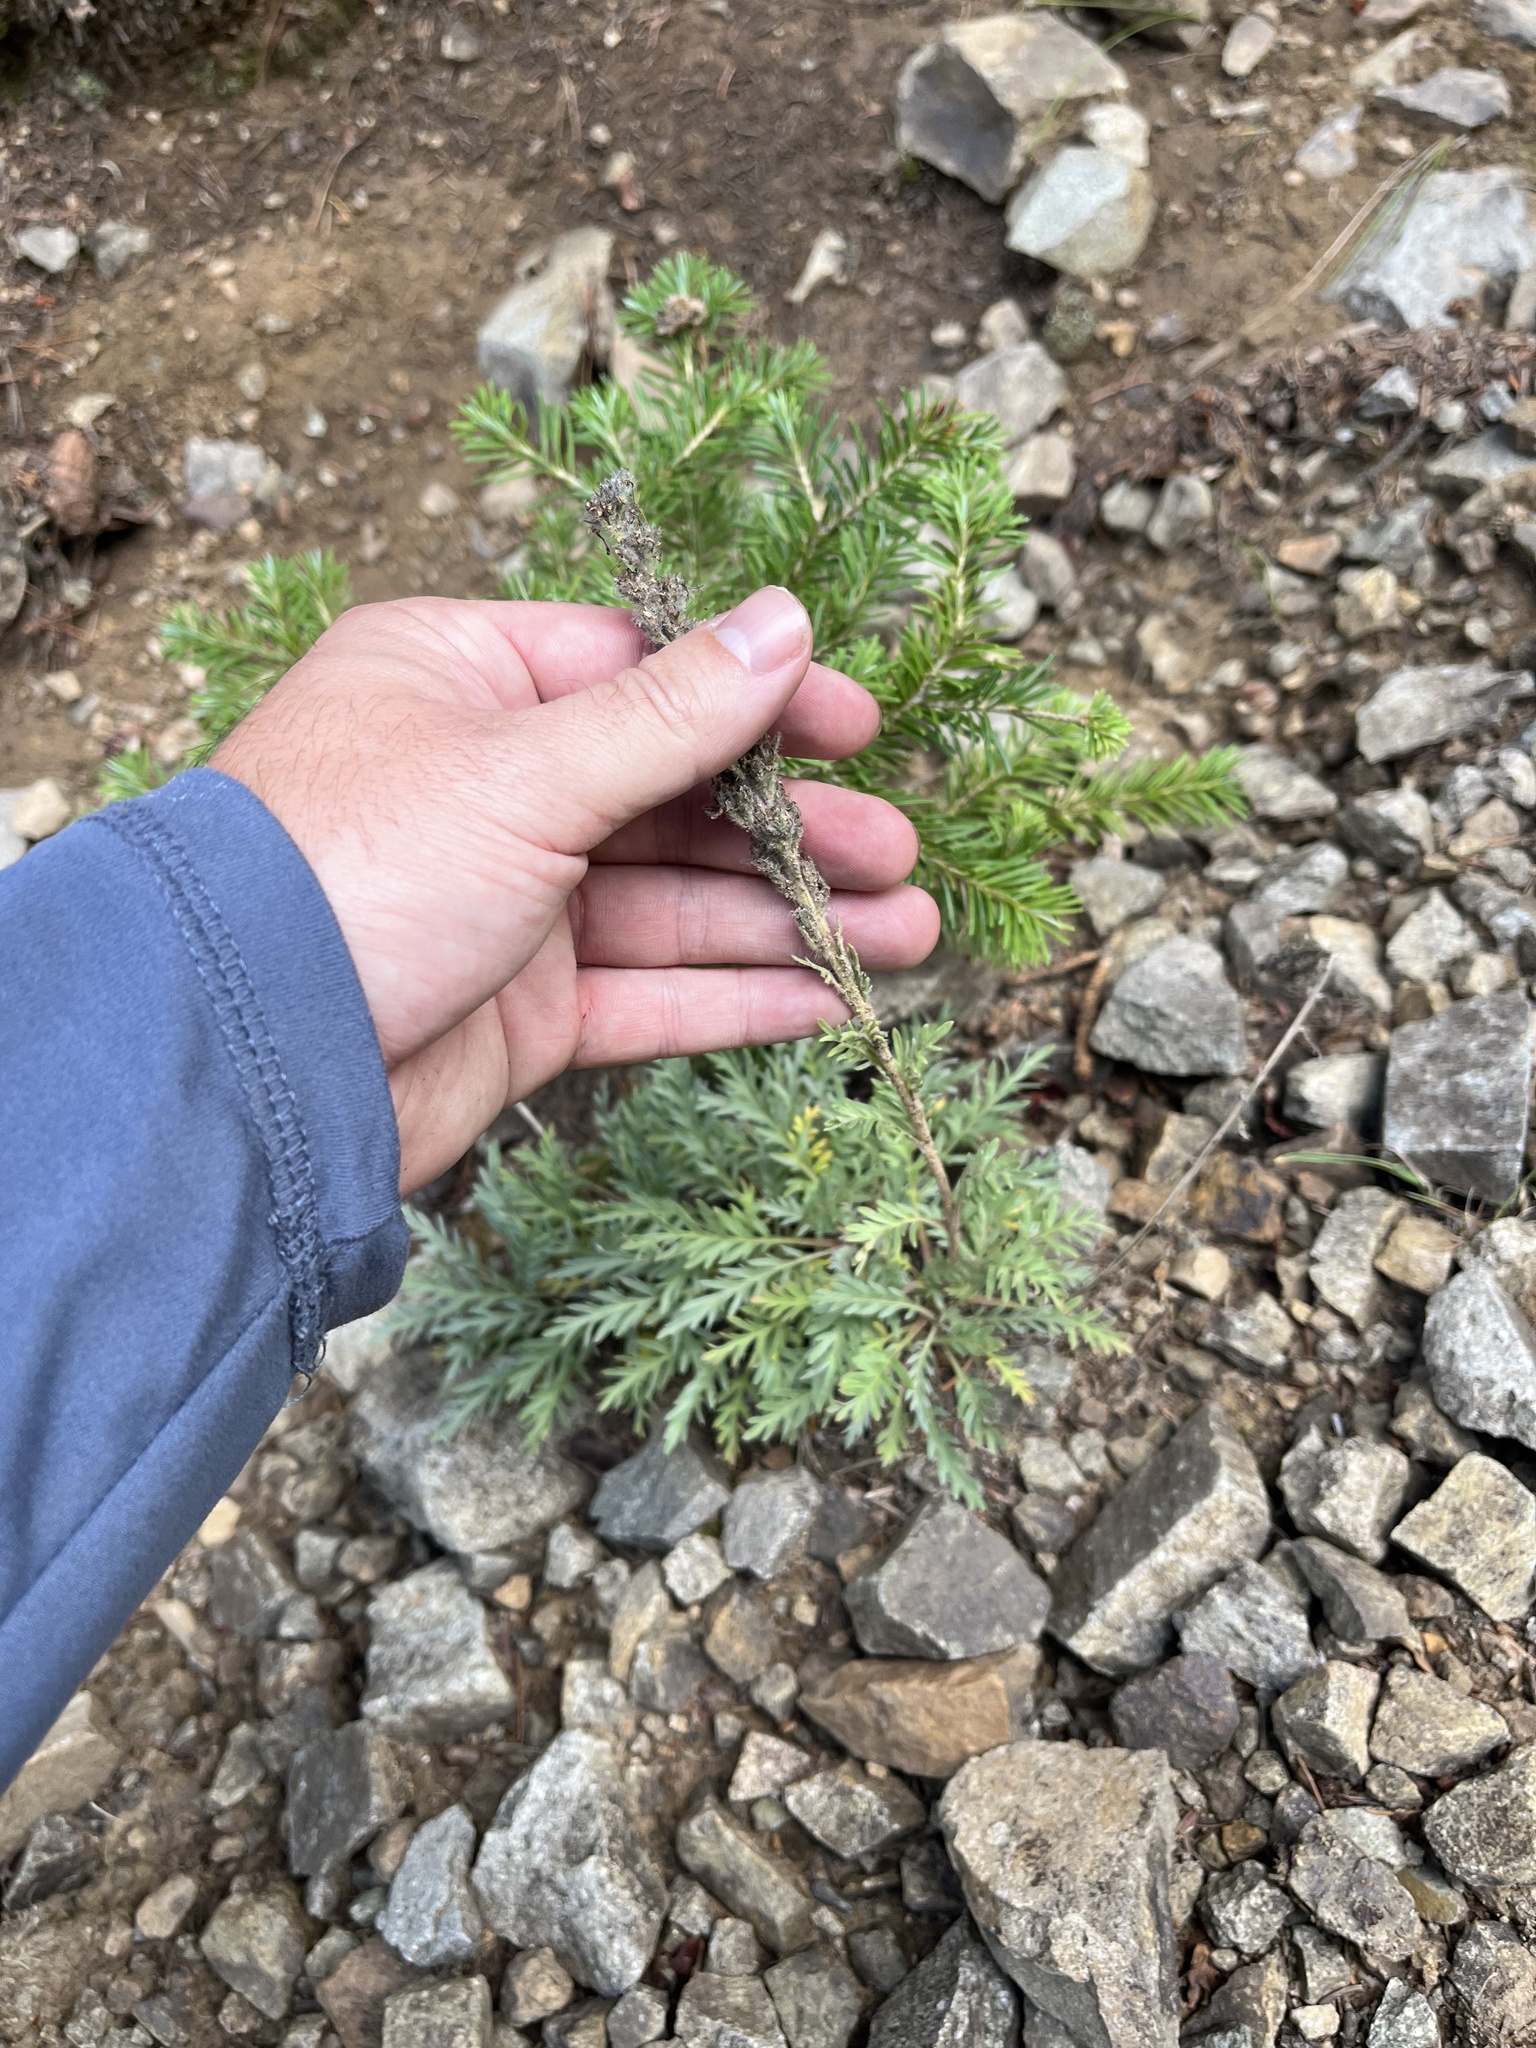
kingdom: Plantae
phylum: Tracheophyta
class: Magnoliopsida
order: Boraginales
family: Hydrophyllaceae
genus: Phacelia
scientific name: Phacelia sericea
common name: Silky phacelia
